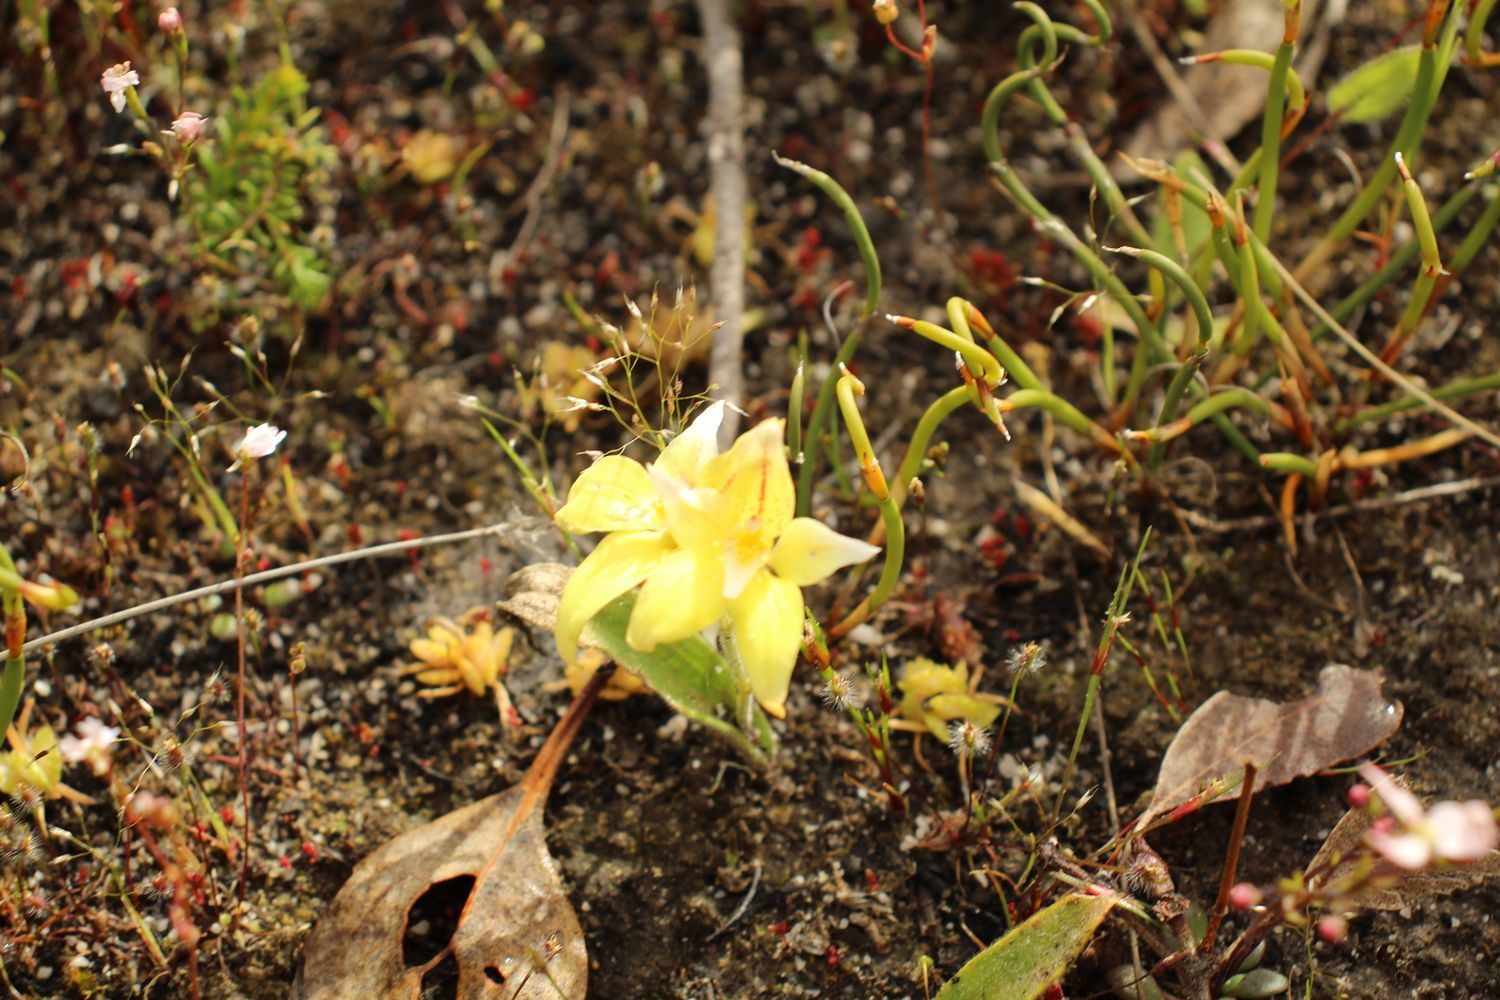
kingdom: Plantae
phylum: Tracheophyta
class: Liliopsida
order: Asparagales
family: Orchidaceae
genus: Caladenia
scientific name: Caladenia flava
